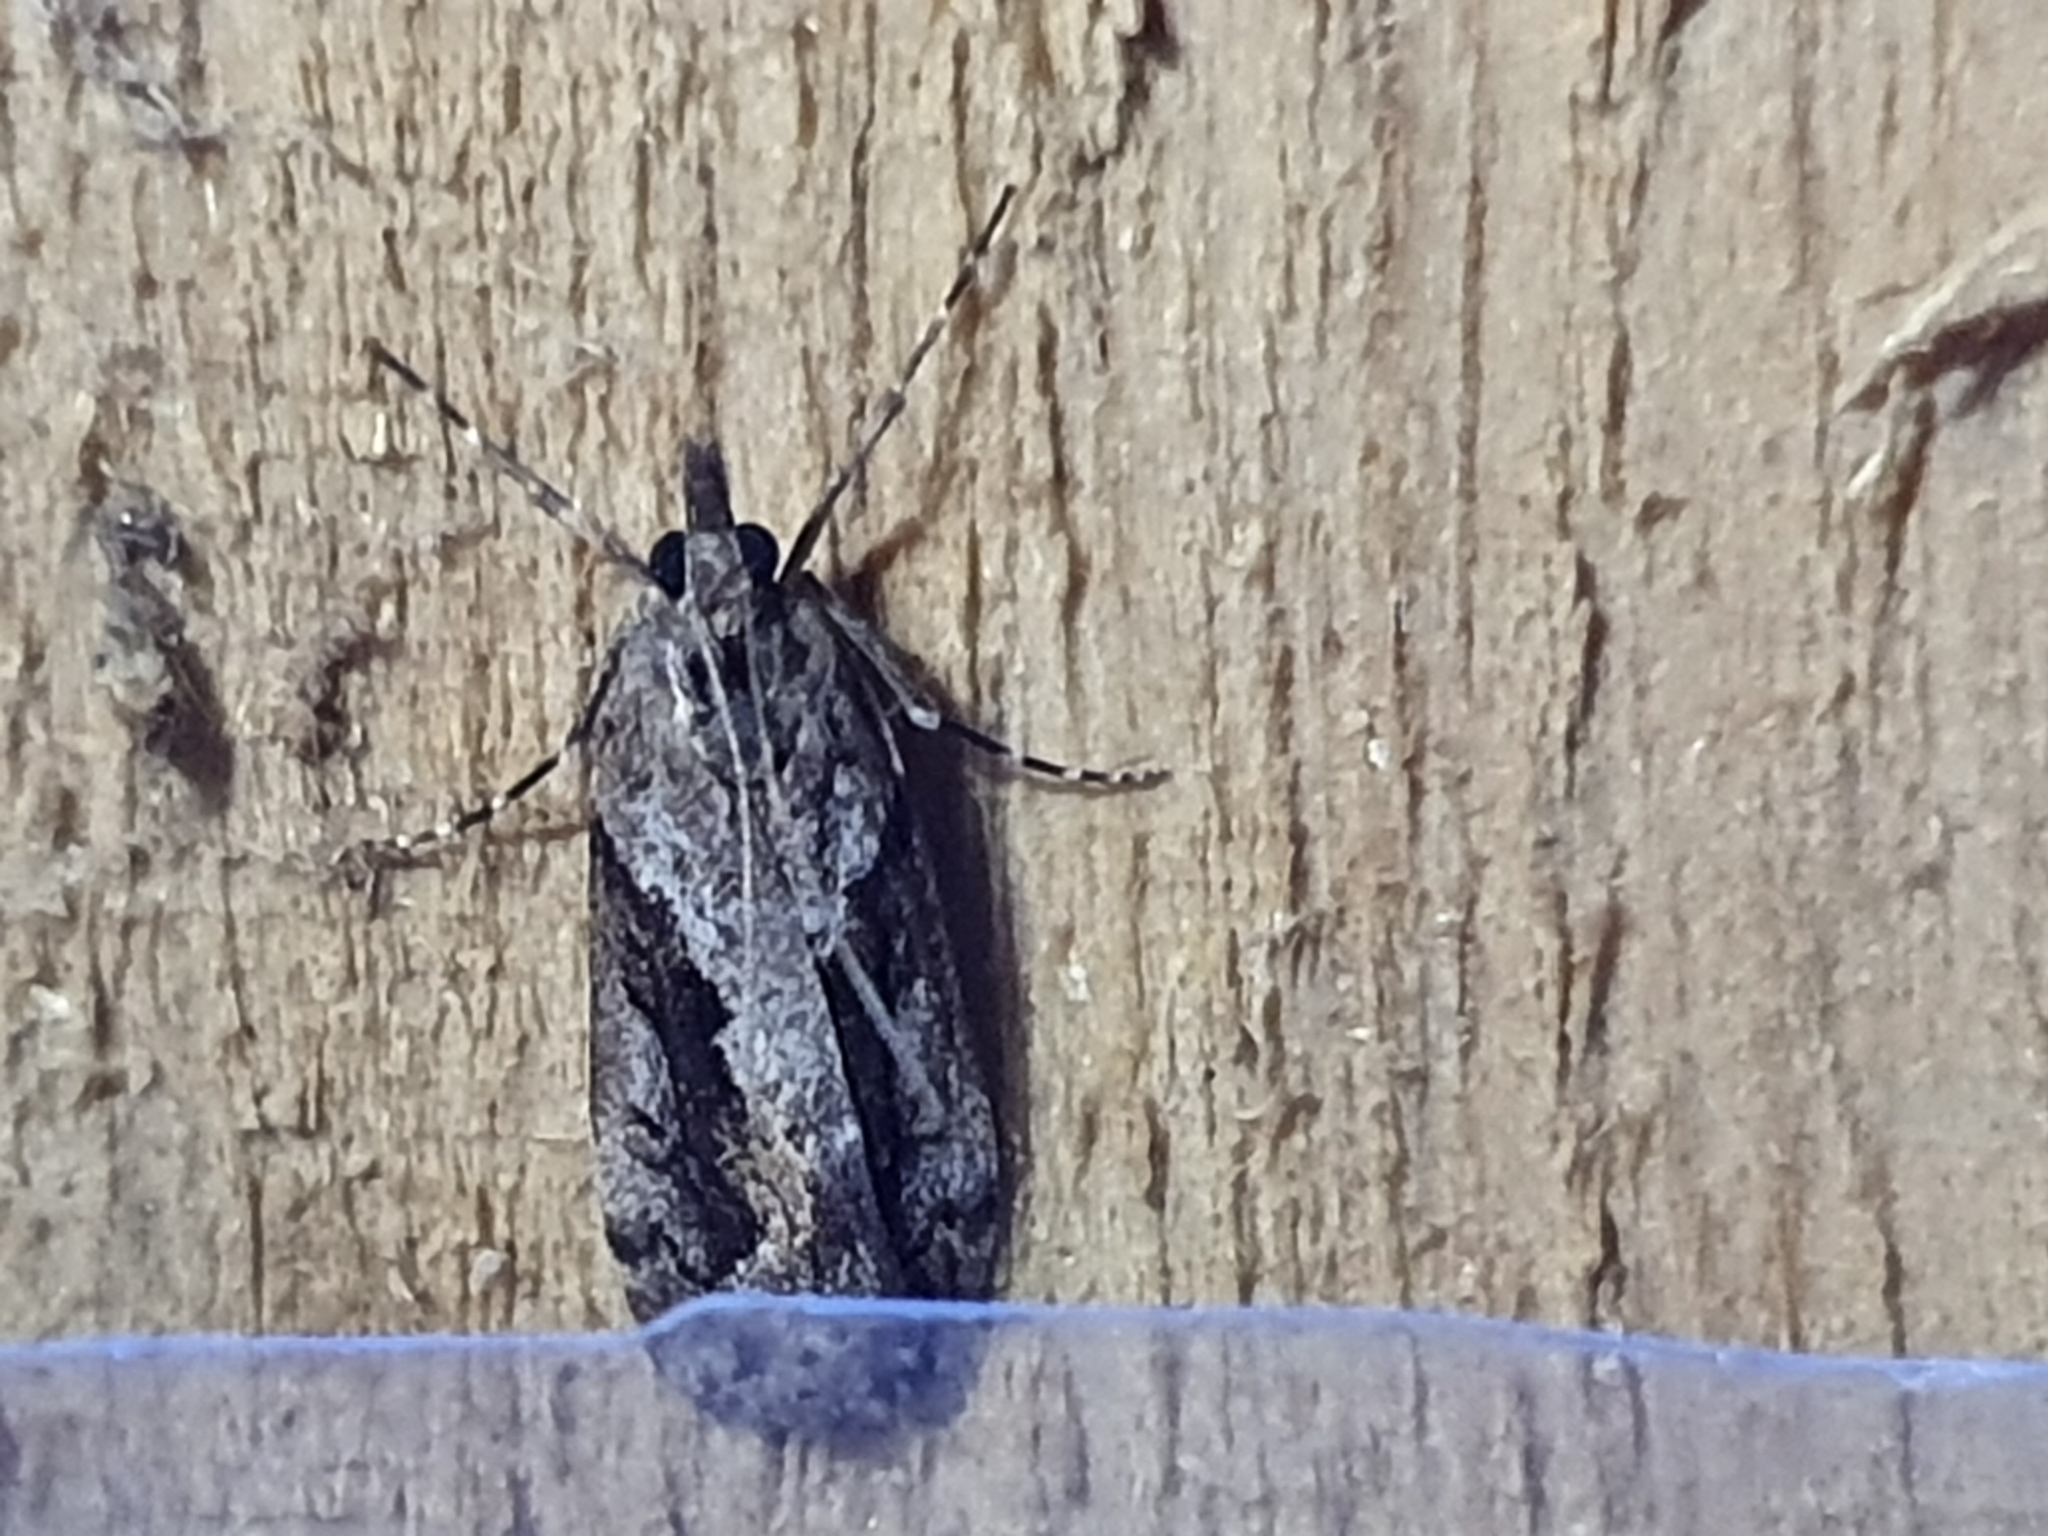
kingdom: Animalia
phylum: Arthropoda
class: Insecta
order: Lepidoptera
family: Crambidae
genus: Eudonia
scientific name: Eudonia submarginalis
